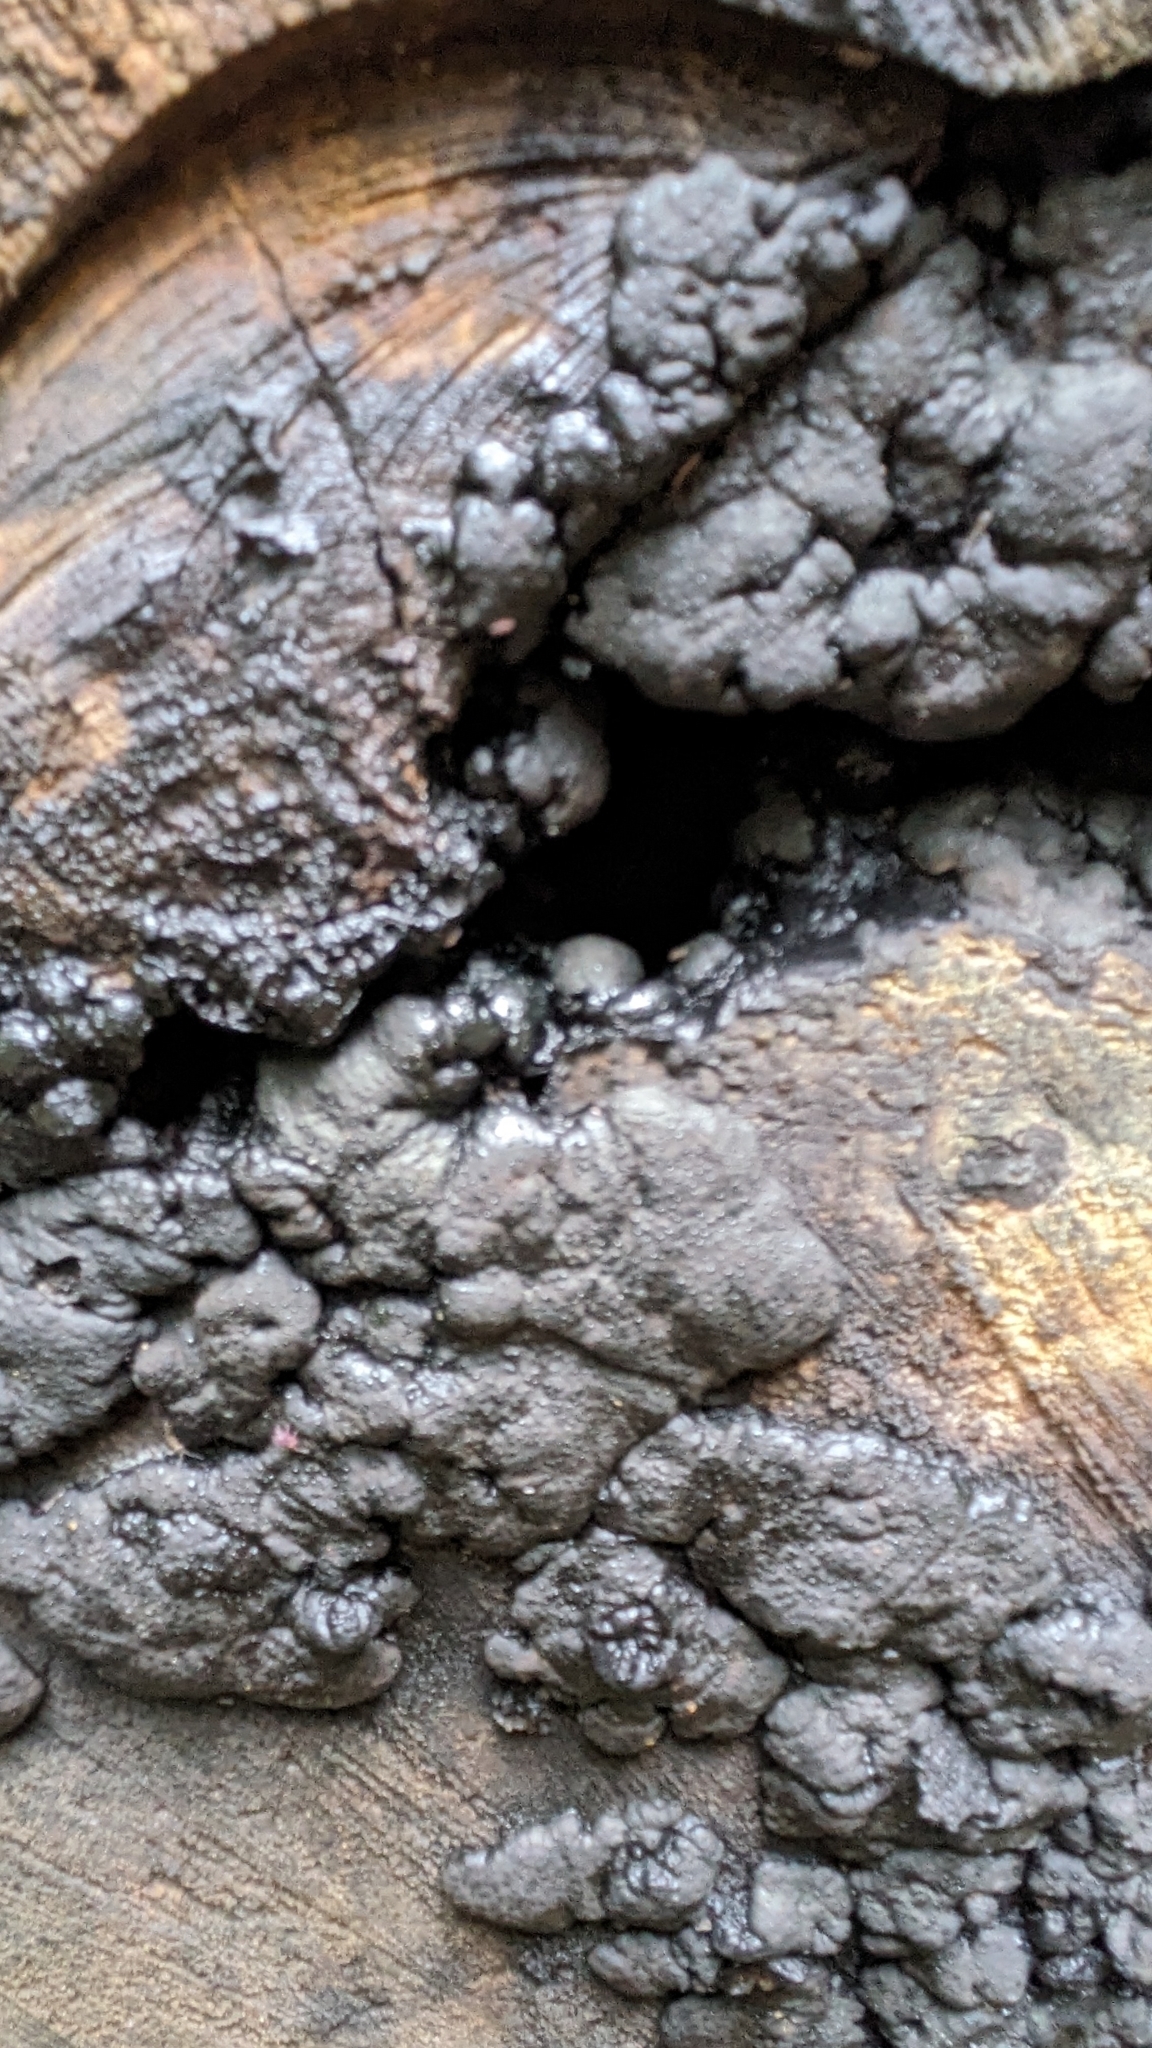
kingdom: Fungi
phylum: Ascomycota
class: Sordariomycetes
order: Xylariales
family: Xylariaceae
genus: Kretzschmaria
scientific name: Kretzschmaria deusta
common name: Brittle cinder
